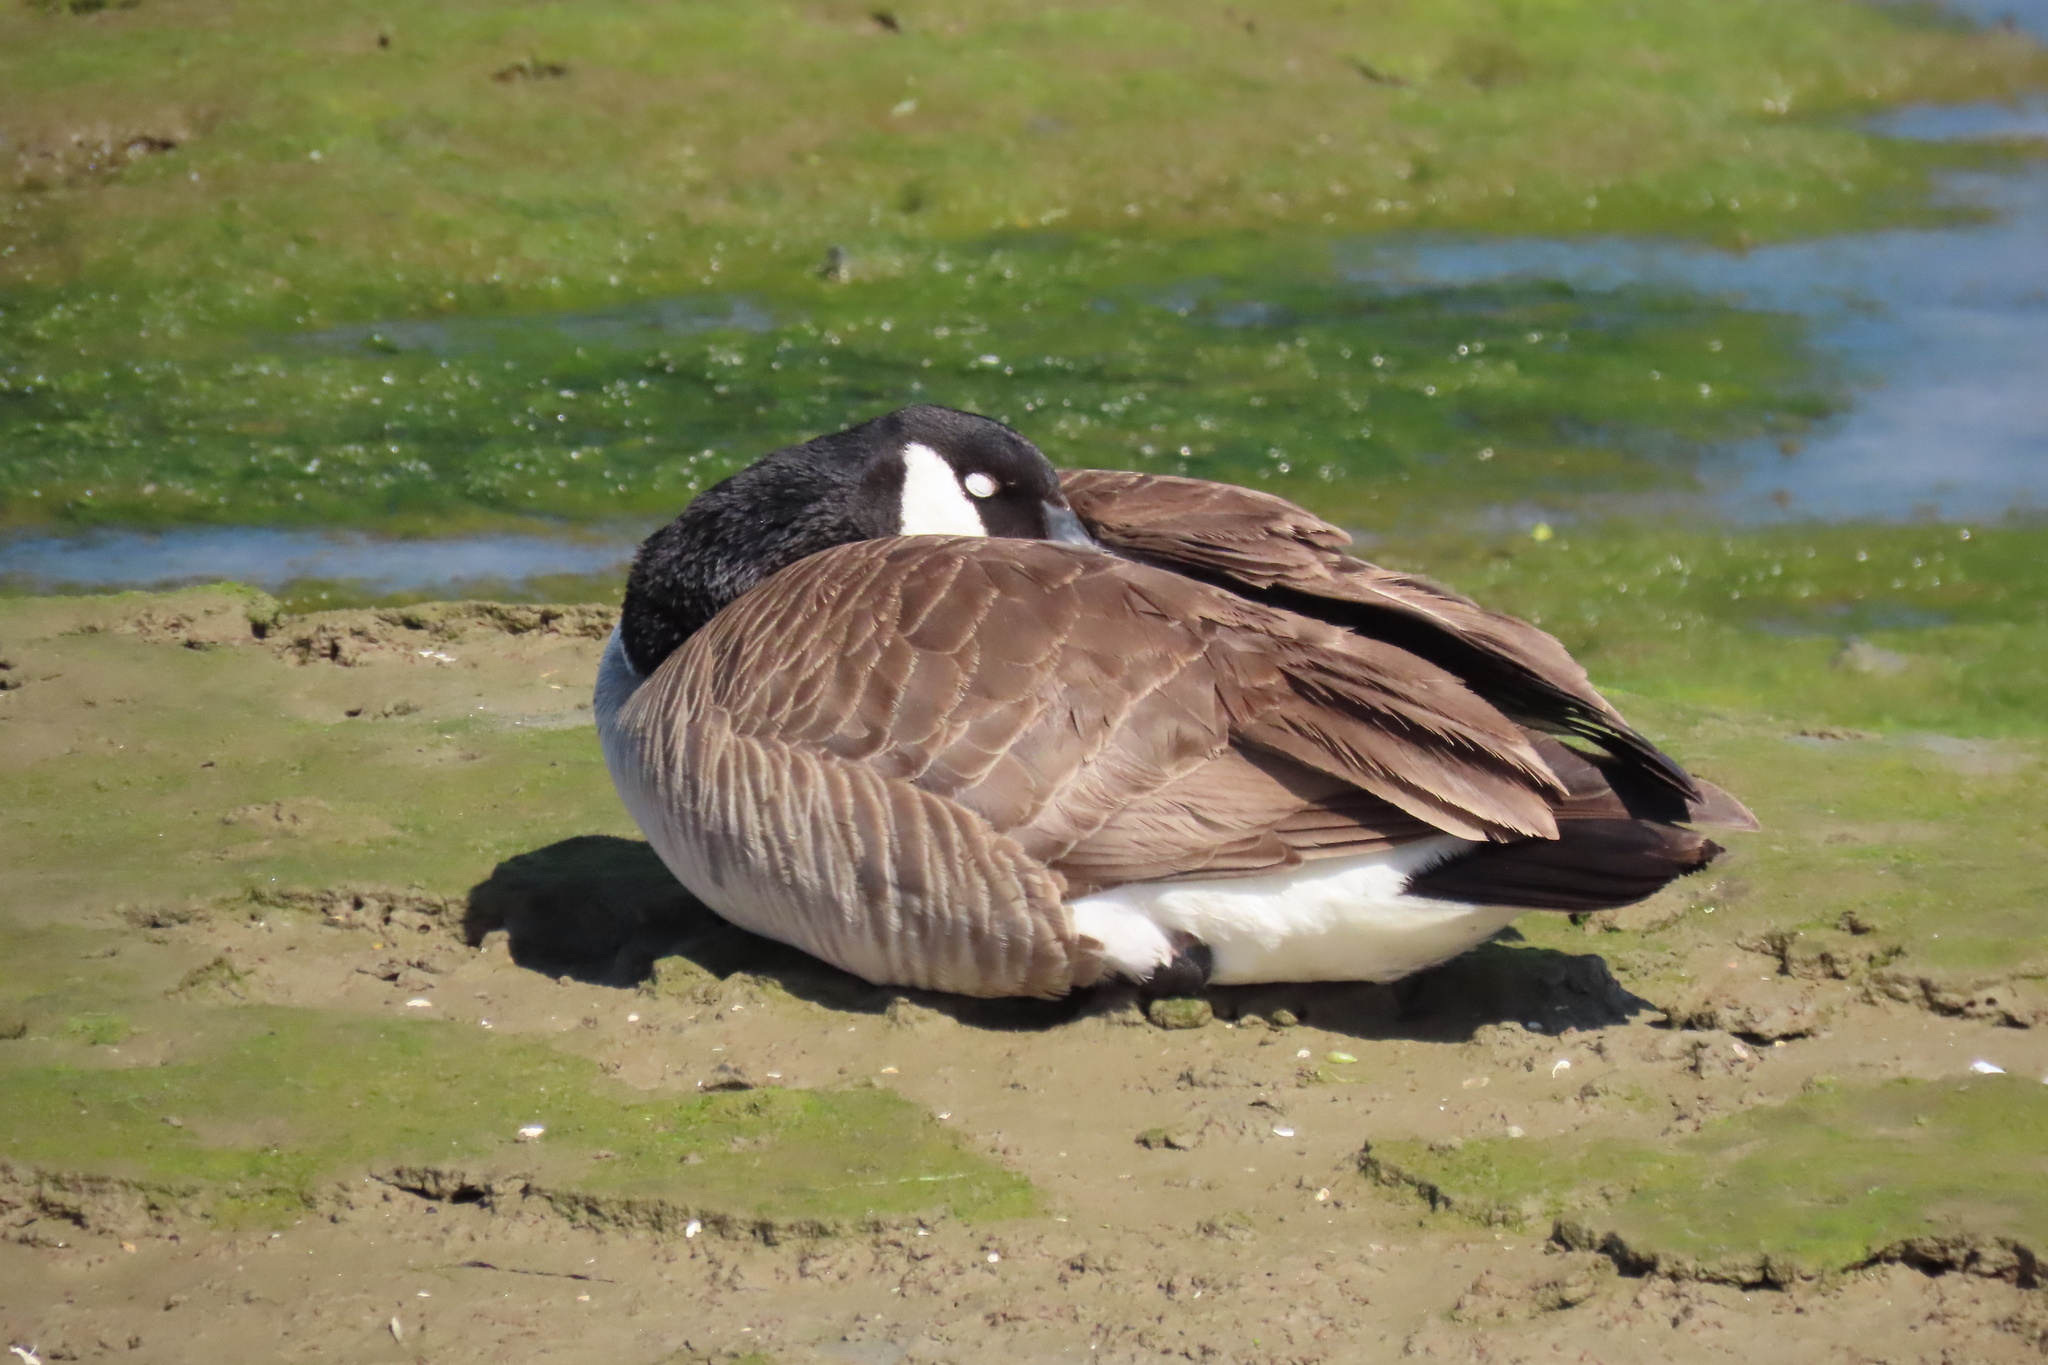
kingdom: Animalia
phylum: Chordata
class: Aves
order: Anseriformes
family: Anatidae
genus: Branta
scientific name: Branta canadensis
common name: Canada goose
